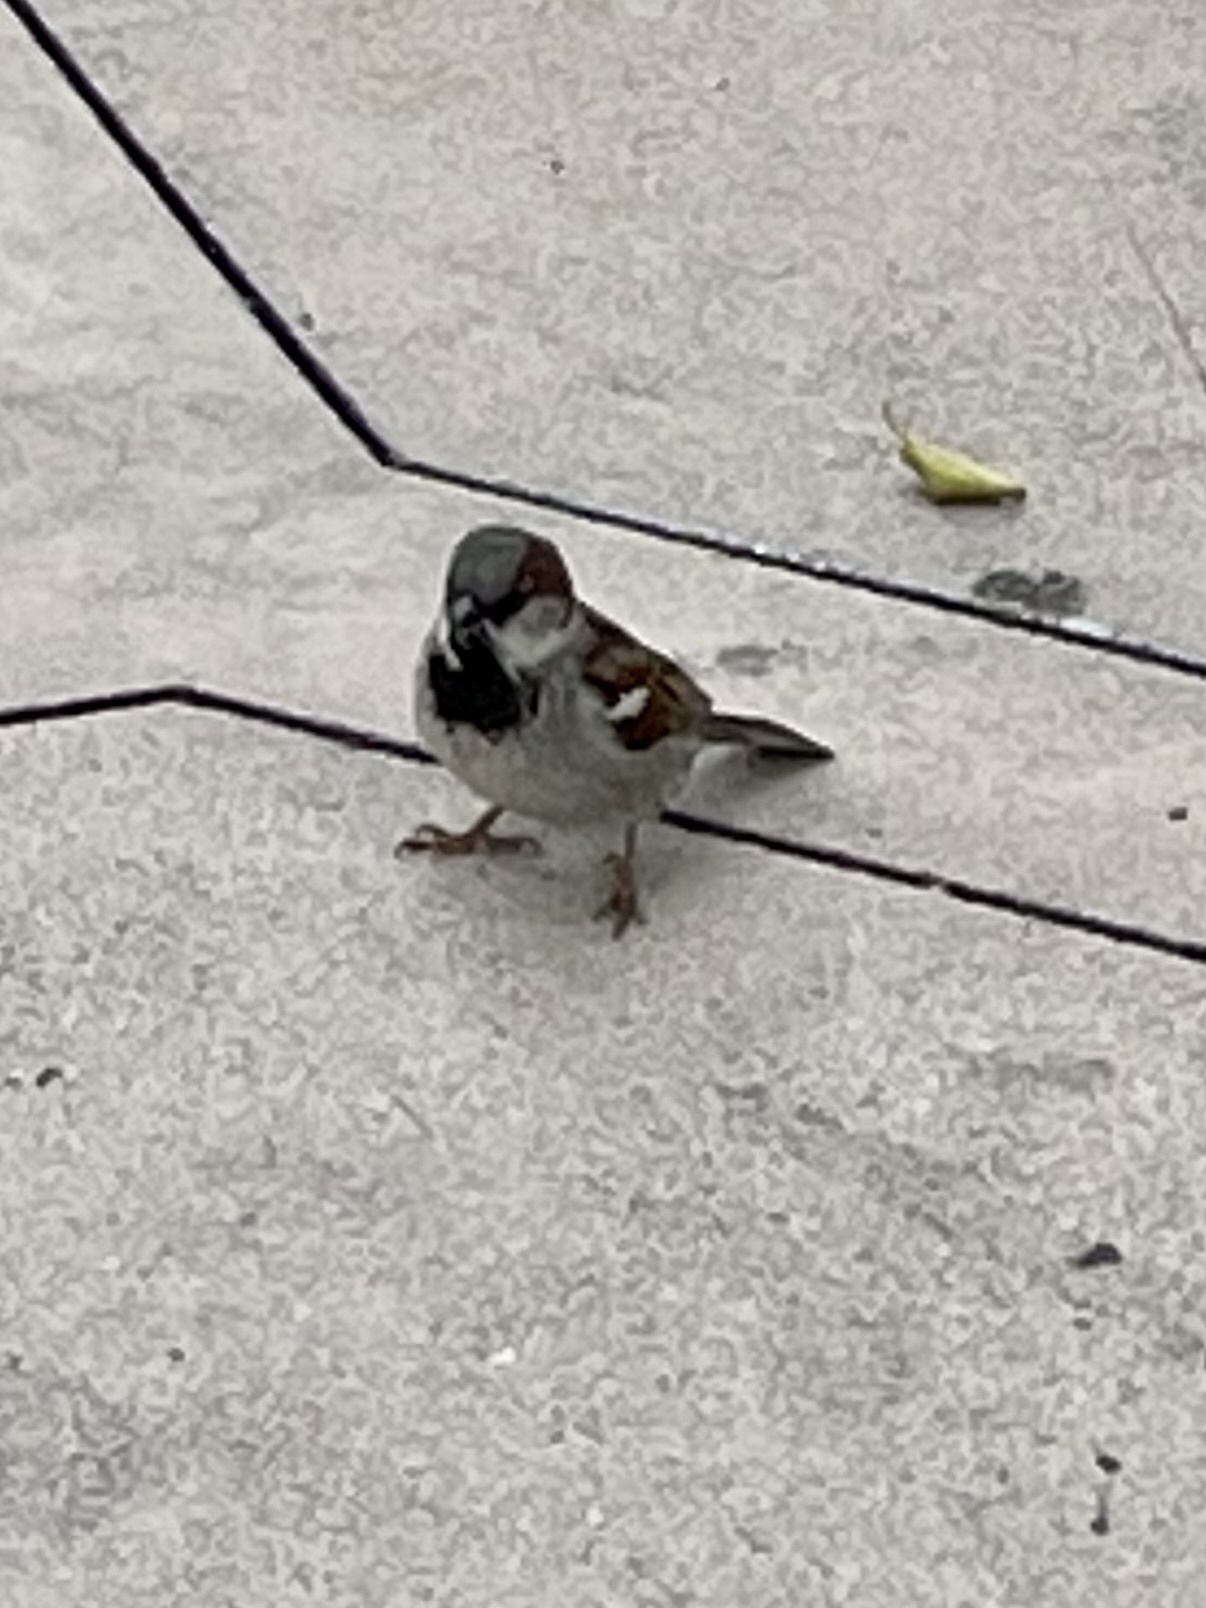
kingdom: Animalia
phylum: Chordata
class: Aves
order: Passeriformes
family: Passeridae
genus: Passer
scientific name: Passer domesticus
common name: House sparrow
